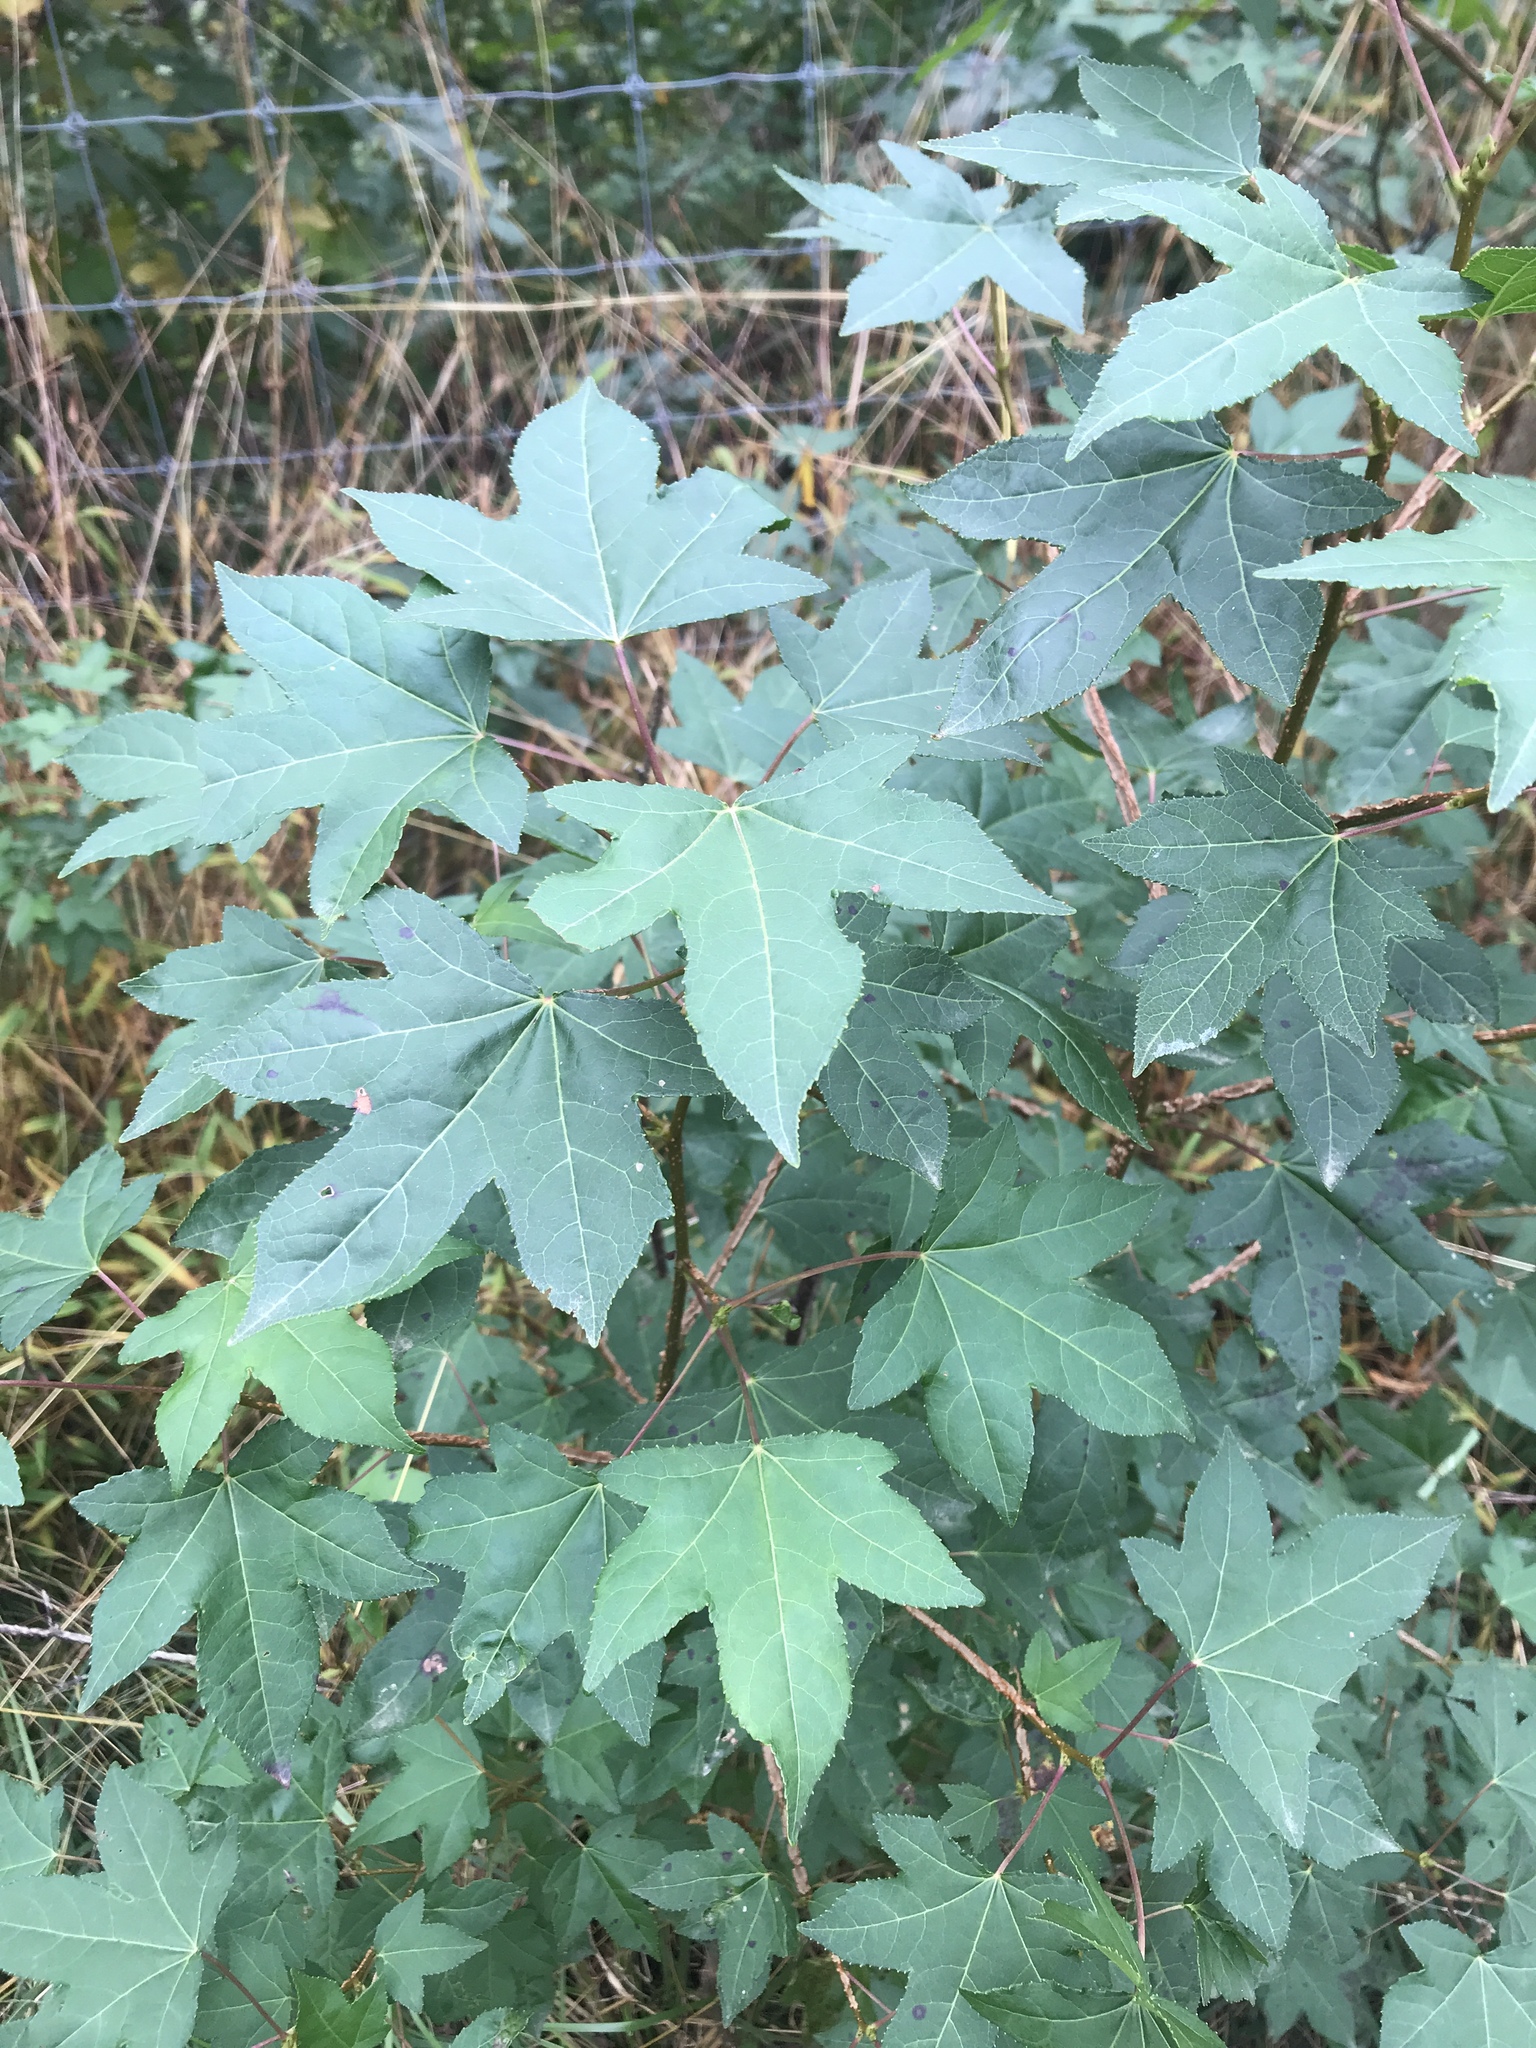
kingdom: Plantae
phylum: Tracheophyta
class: Magnoliopsida
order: Saxifragales
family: Altingiaceae
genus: Liquidambar
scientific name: Liquidambar styraciflua
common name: Sweet gum
